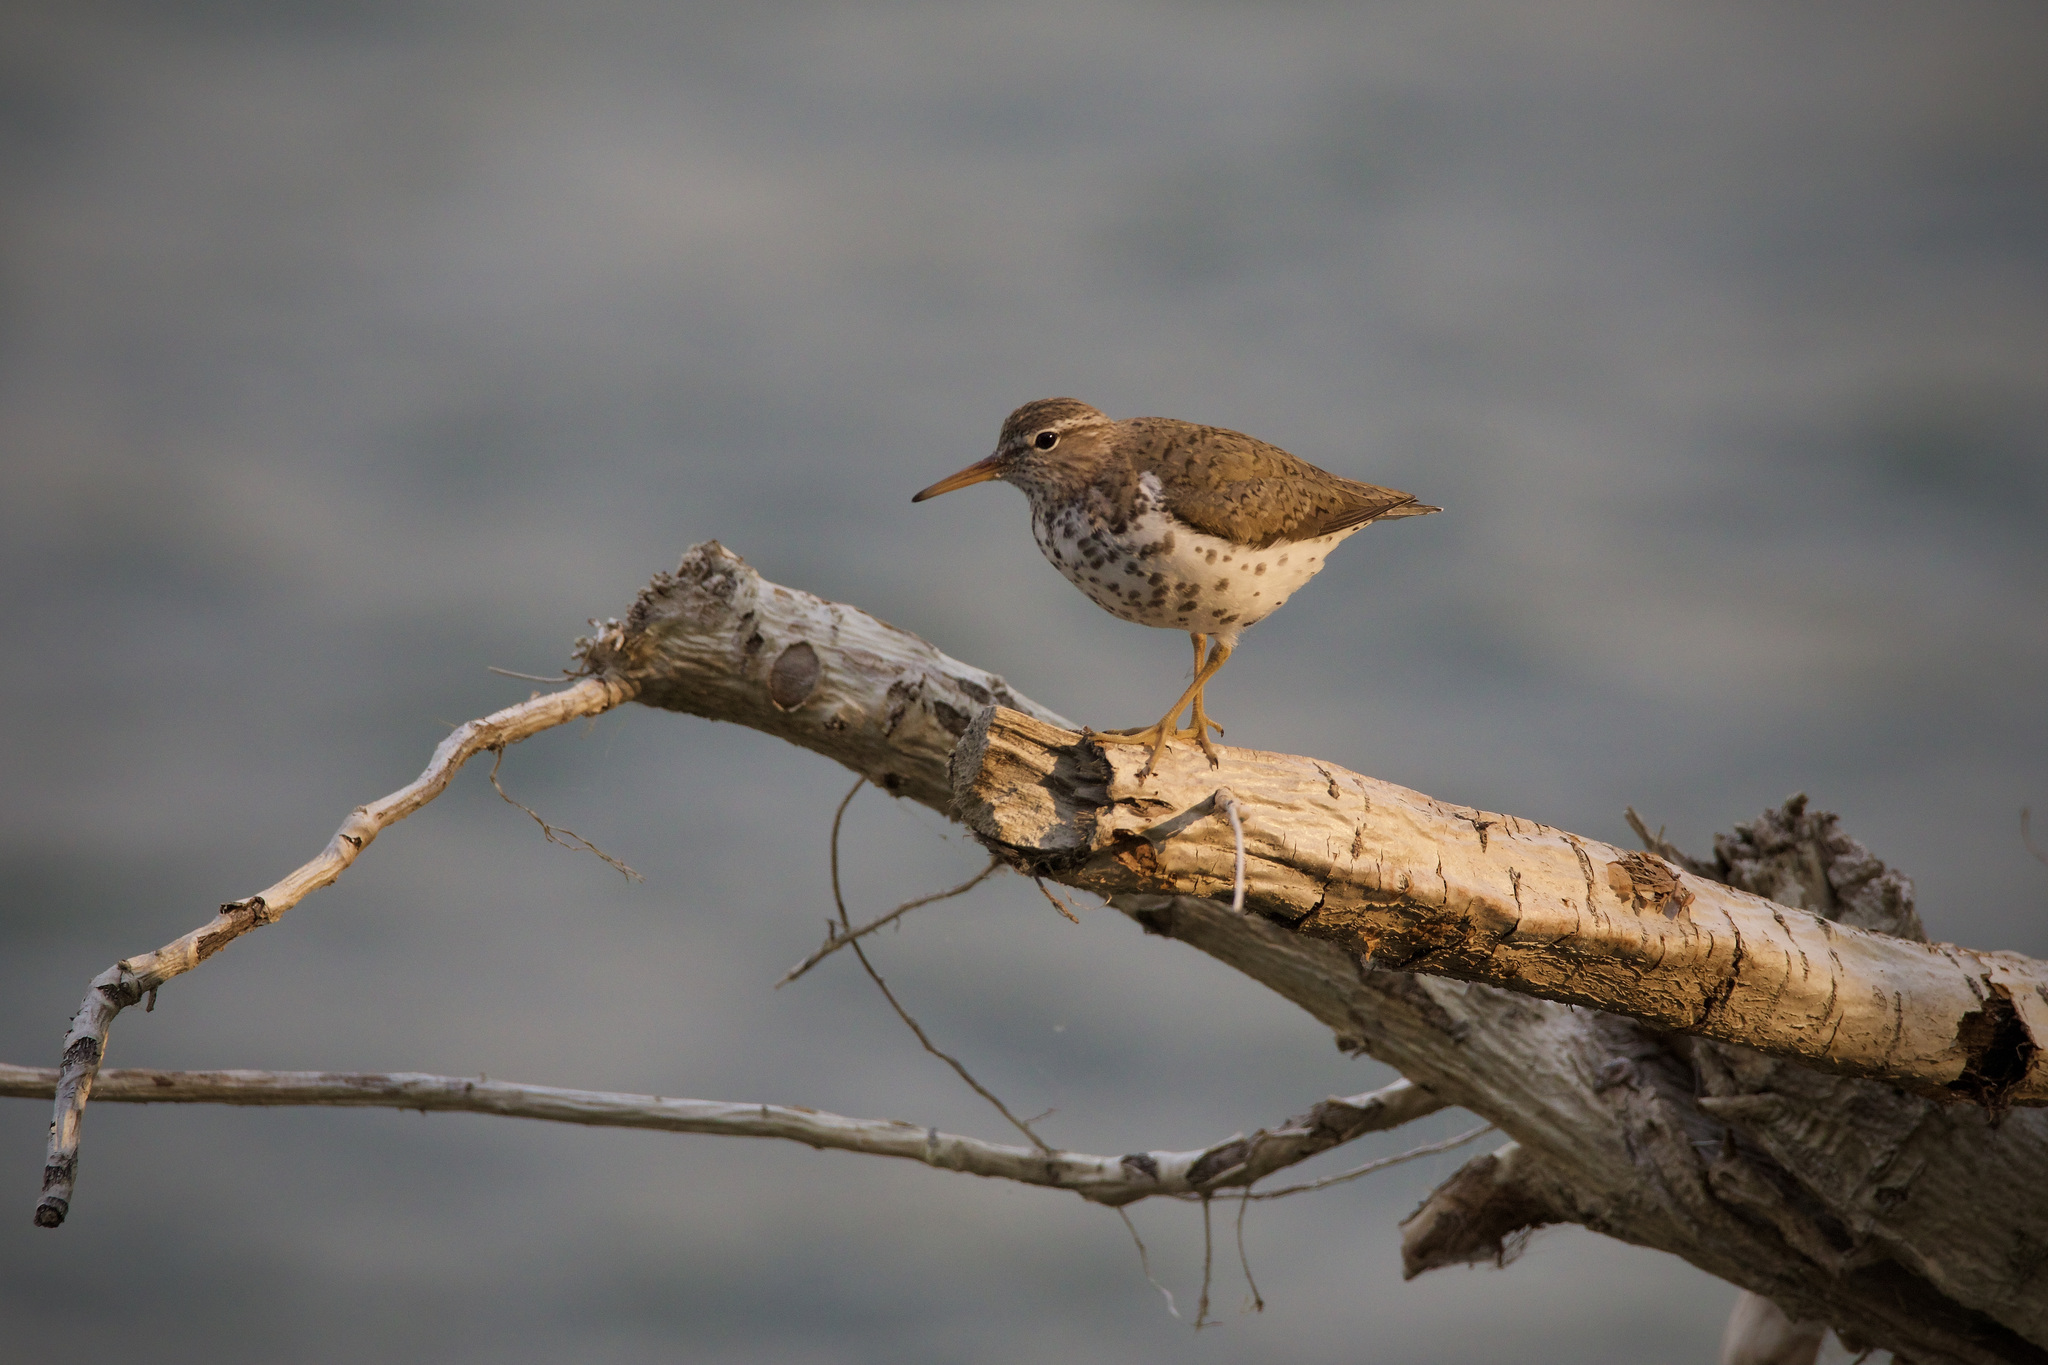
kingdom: Animalia
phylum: Chordata
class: Aves
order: Charadriiformes
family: Scolopacidae
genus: Actitis
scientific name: Actitis macularius
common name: Spotted sandpiper
